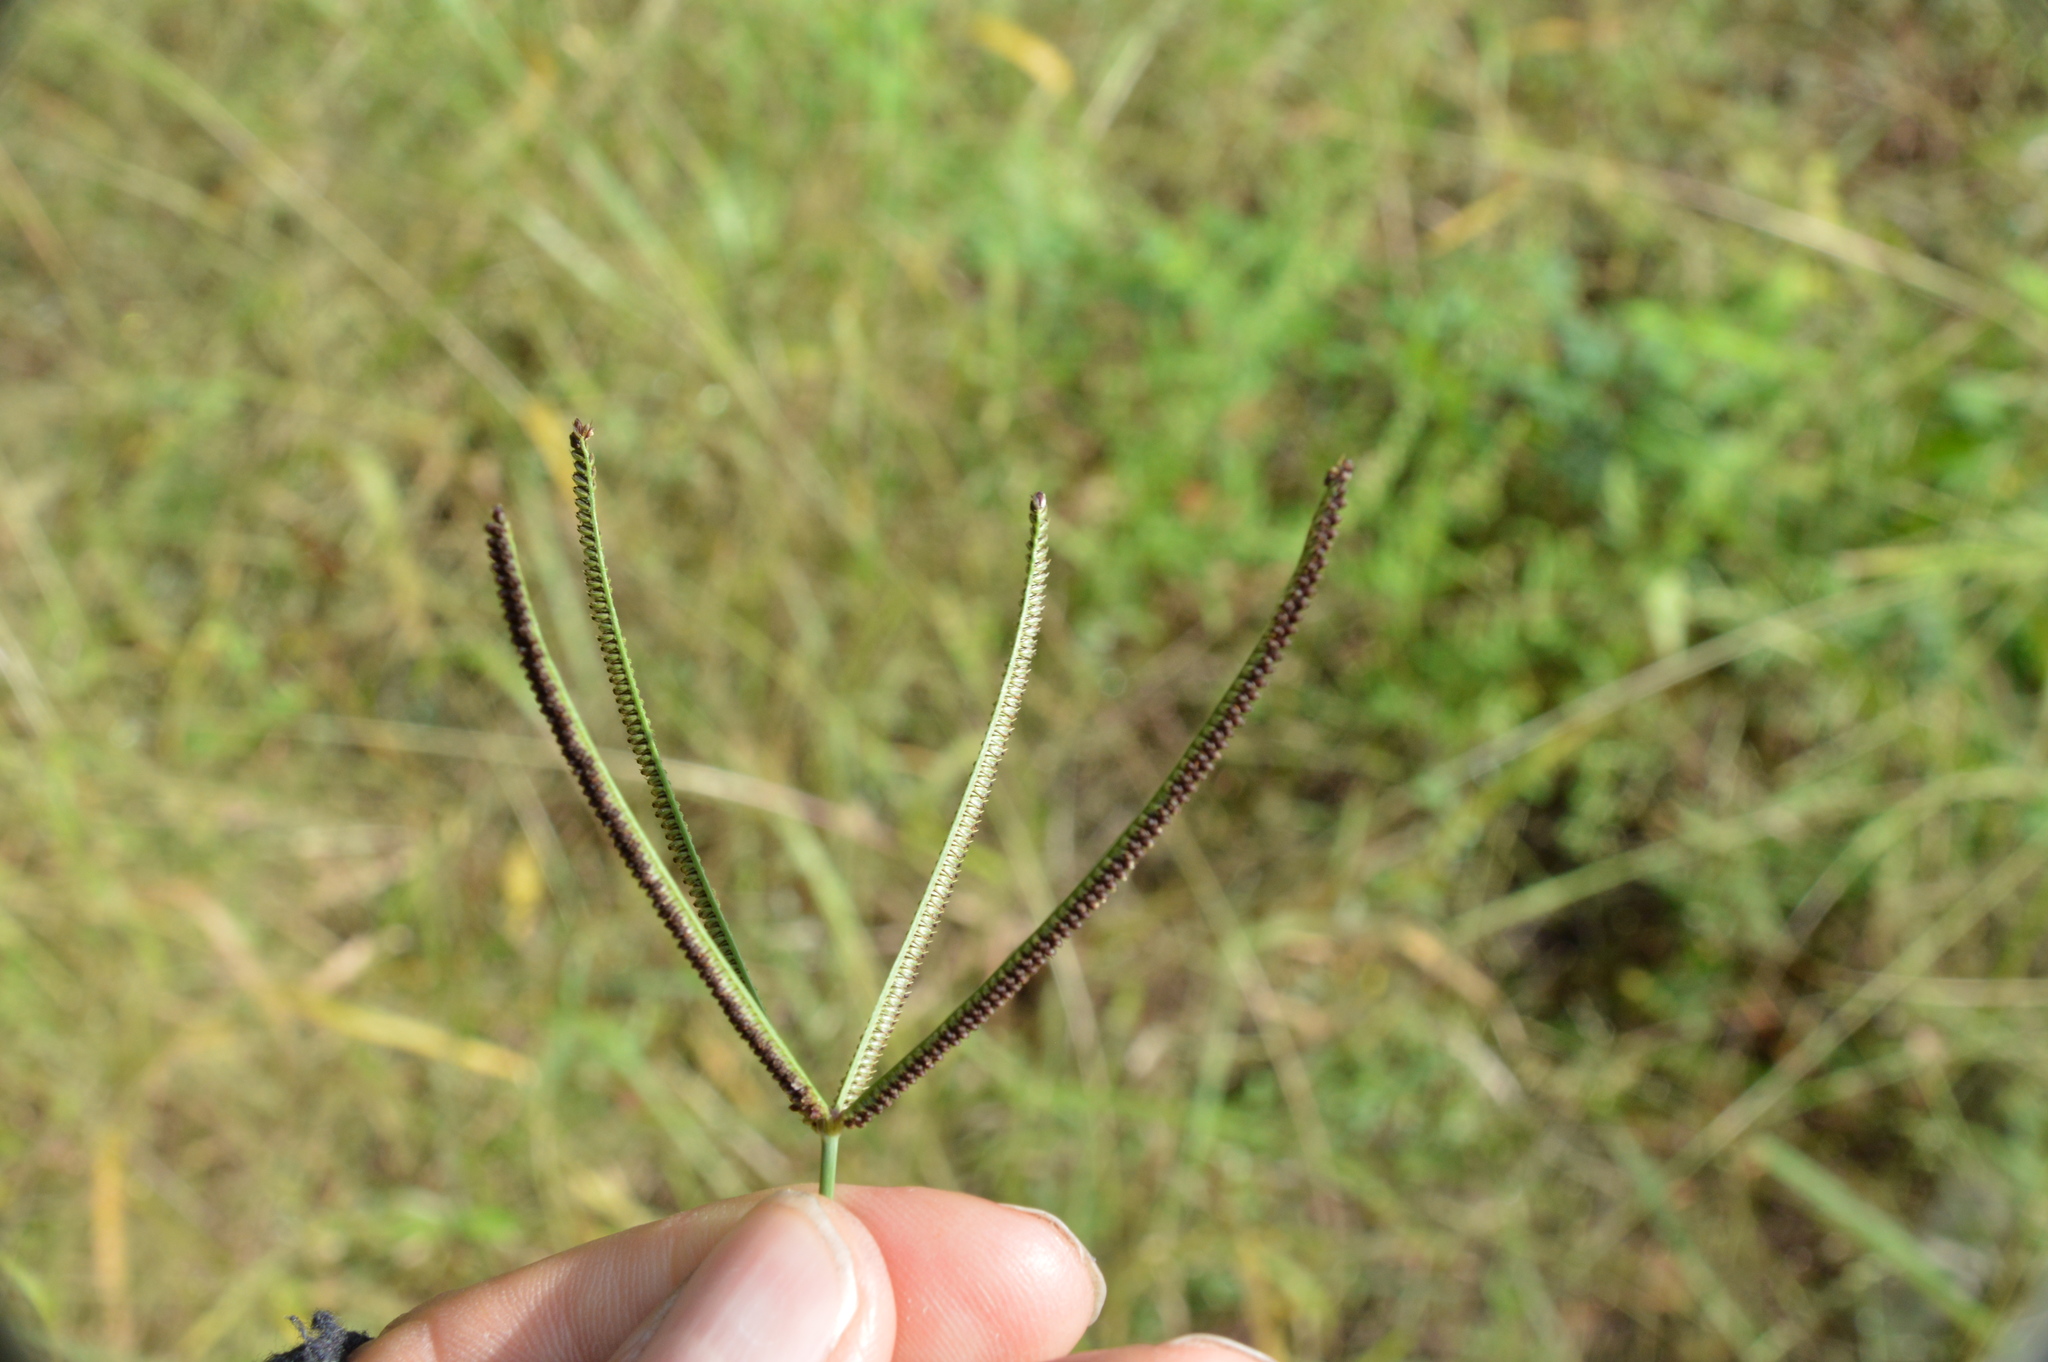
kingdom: Plantae
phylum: Tracheophyta
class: Liliopsida
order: Poales
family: Poaceae
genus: Eustachys
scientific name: Eustachys petraea
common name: Pinewoods fingergrass
